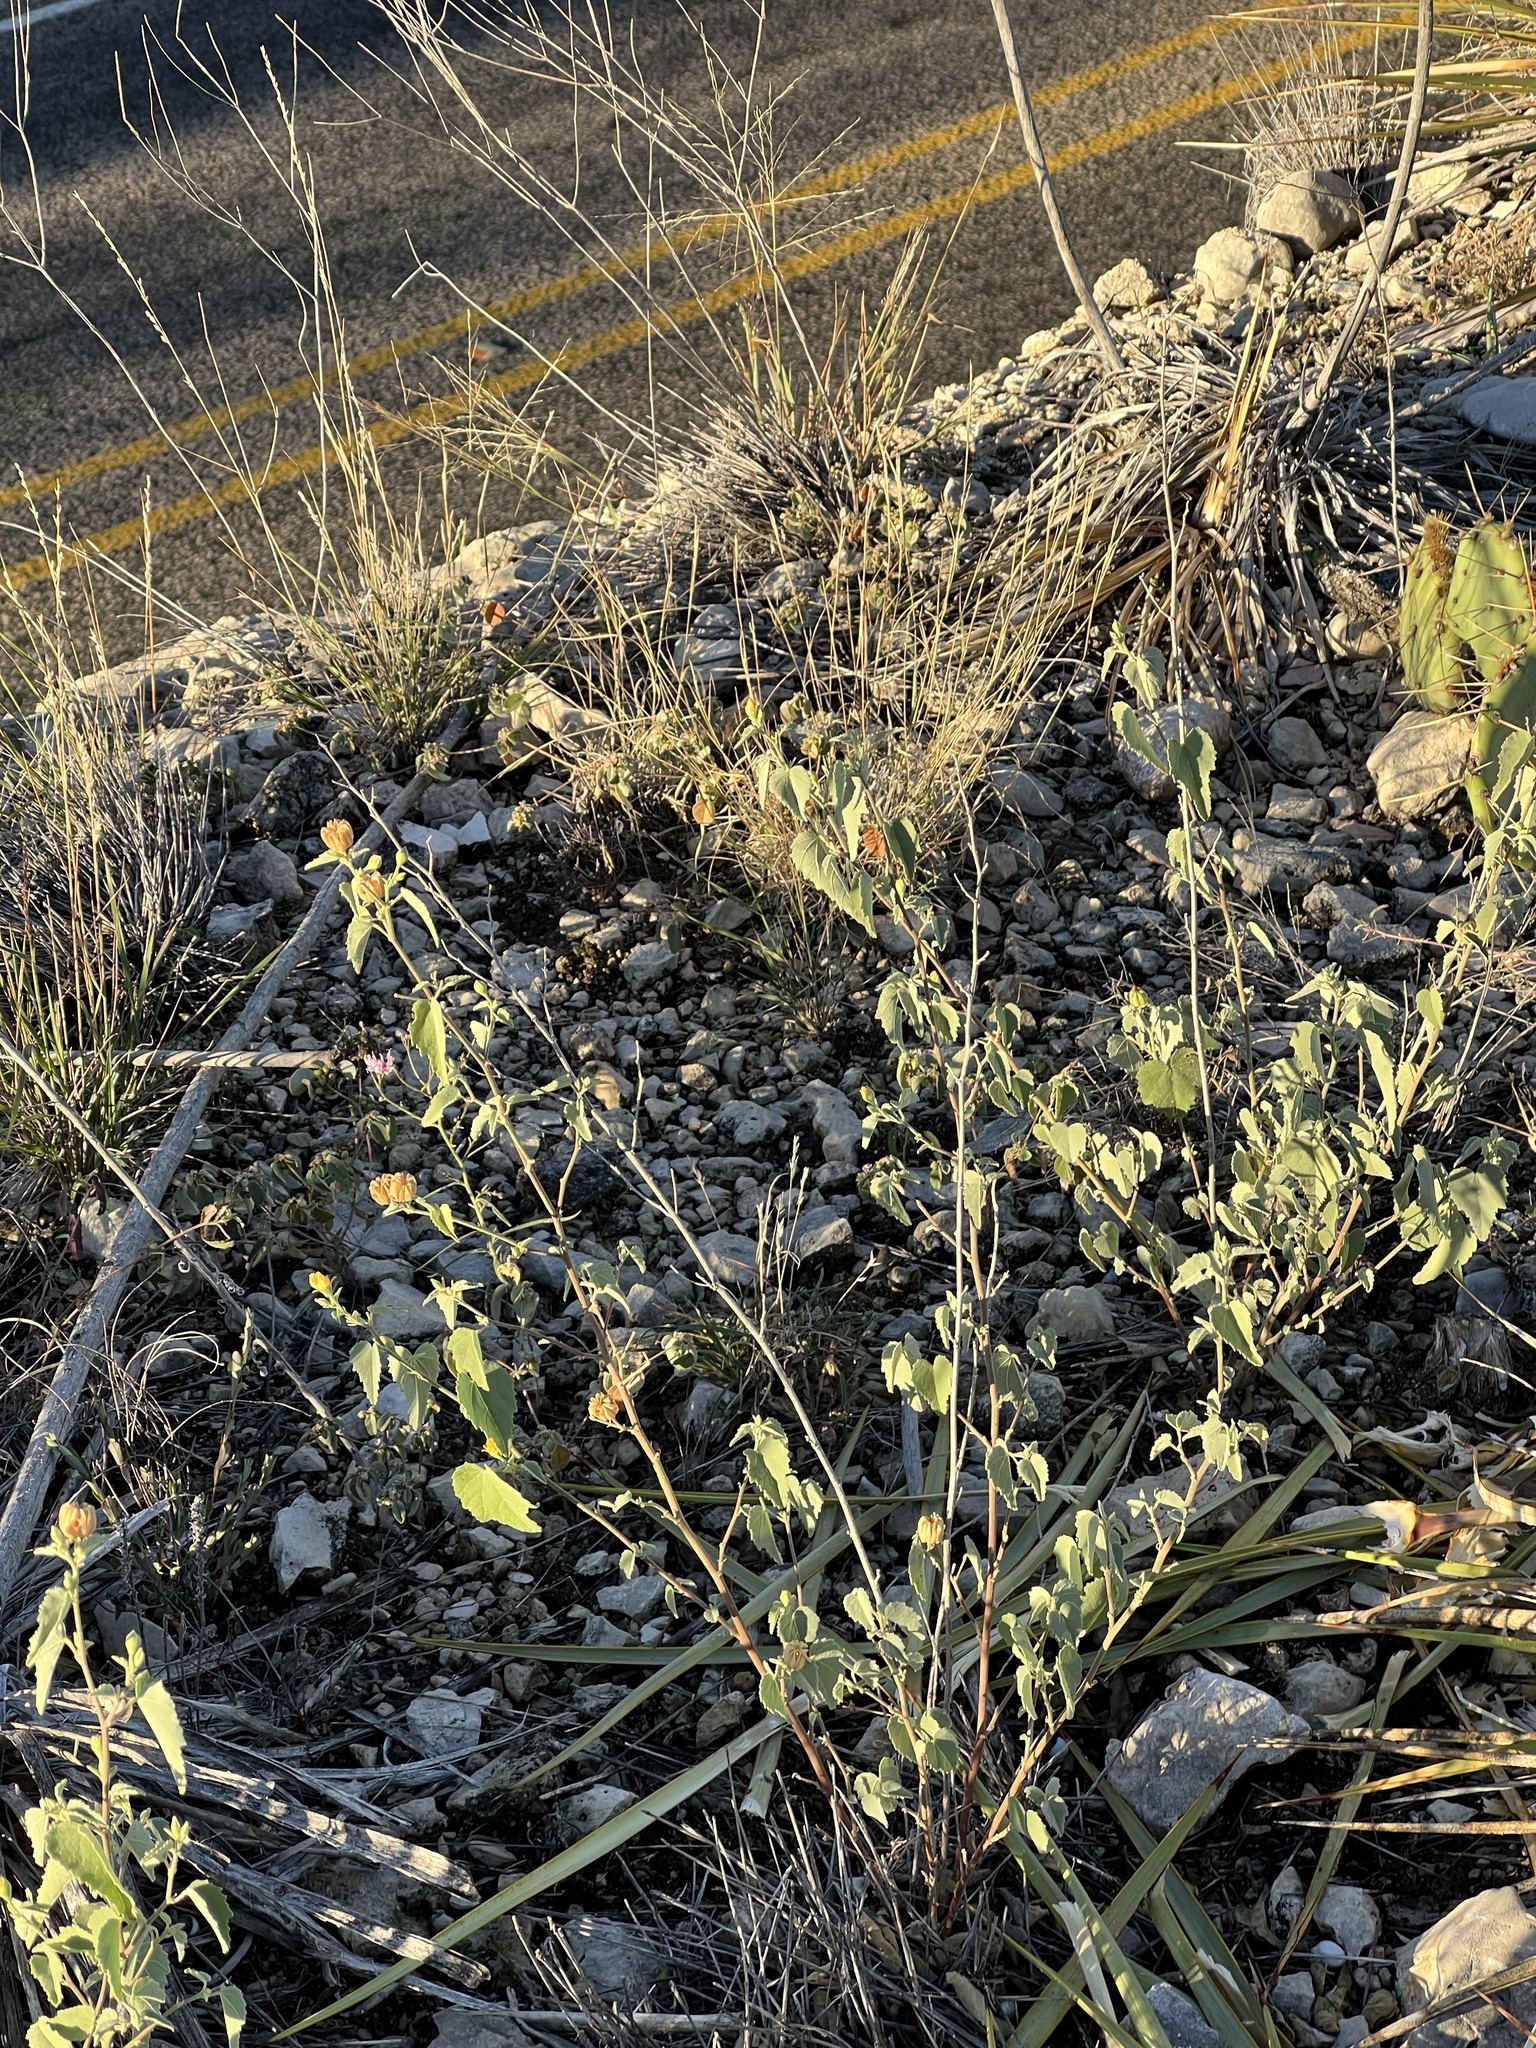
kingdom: Plantae
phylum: Tracheophyta
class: Magnoliopsida
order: Malvales
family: Malvaceae
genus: Abutilon
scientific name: Abutilon fruticosum
